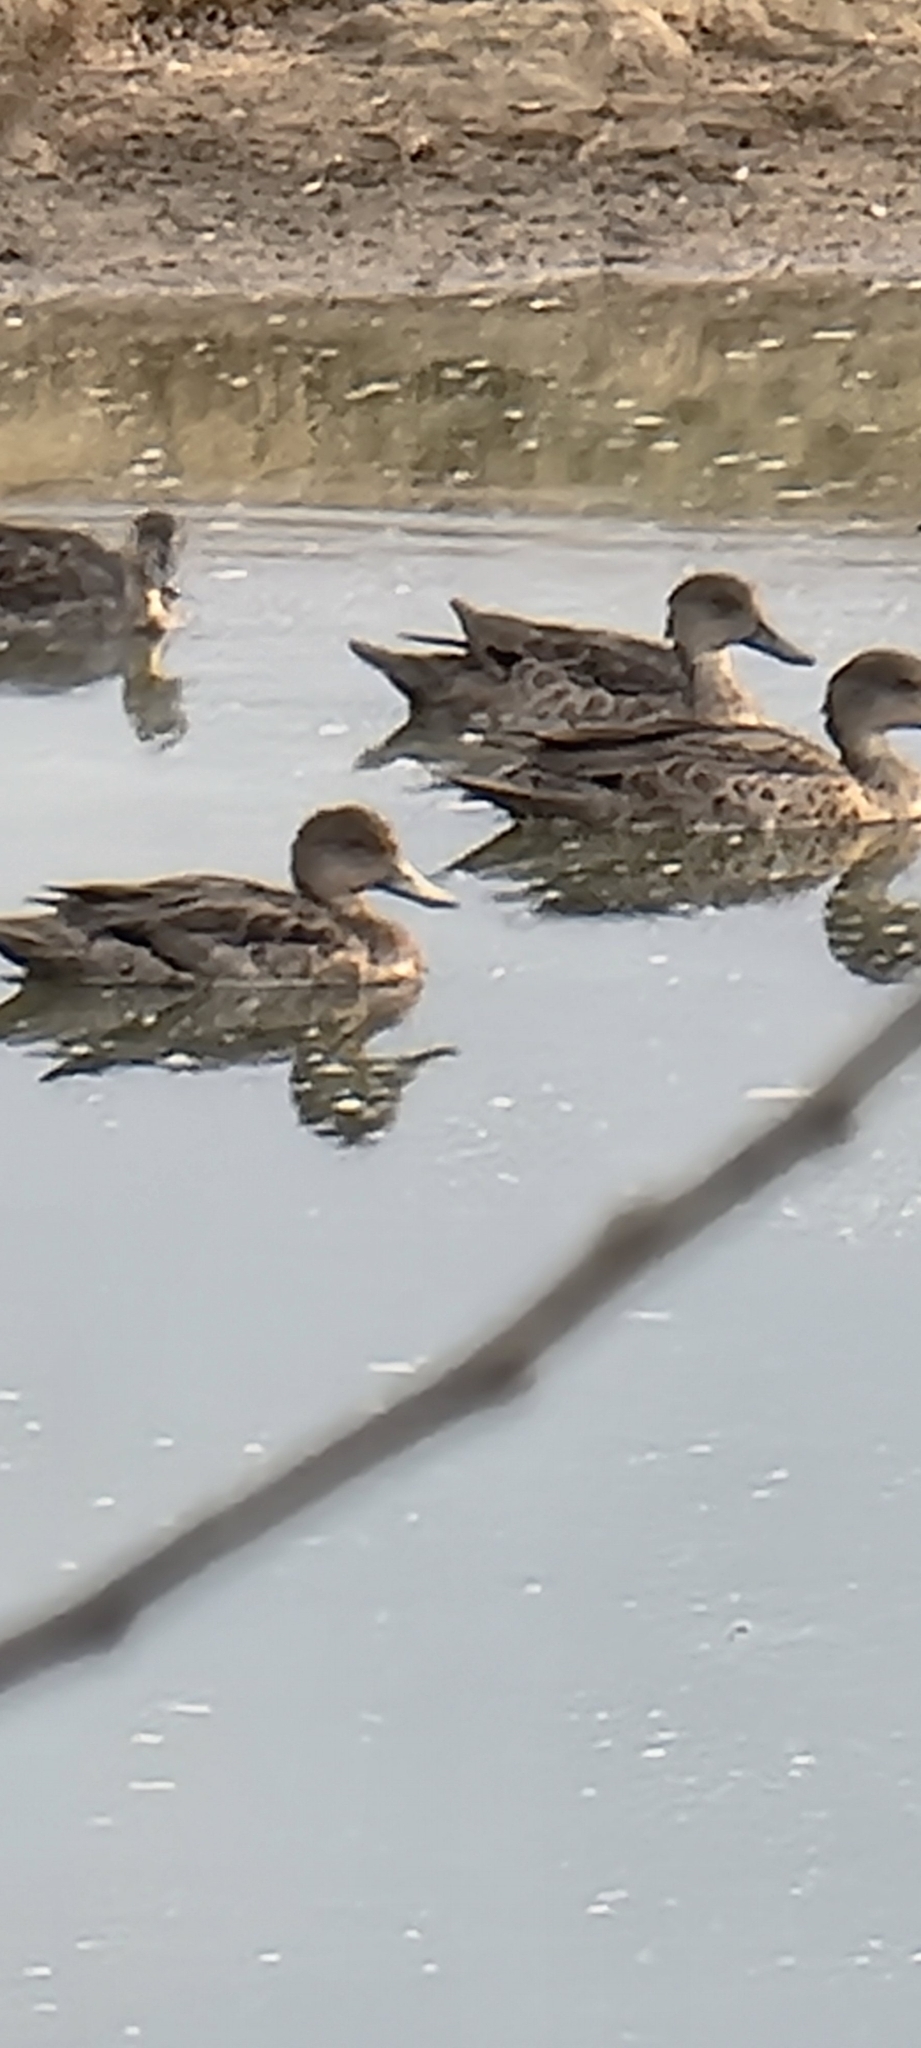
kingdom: Animalia
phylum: Chordata
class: Aves
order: Anseriformes
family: Anatidae
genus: Anas
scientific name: Anas gracilis
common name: Grey teal
